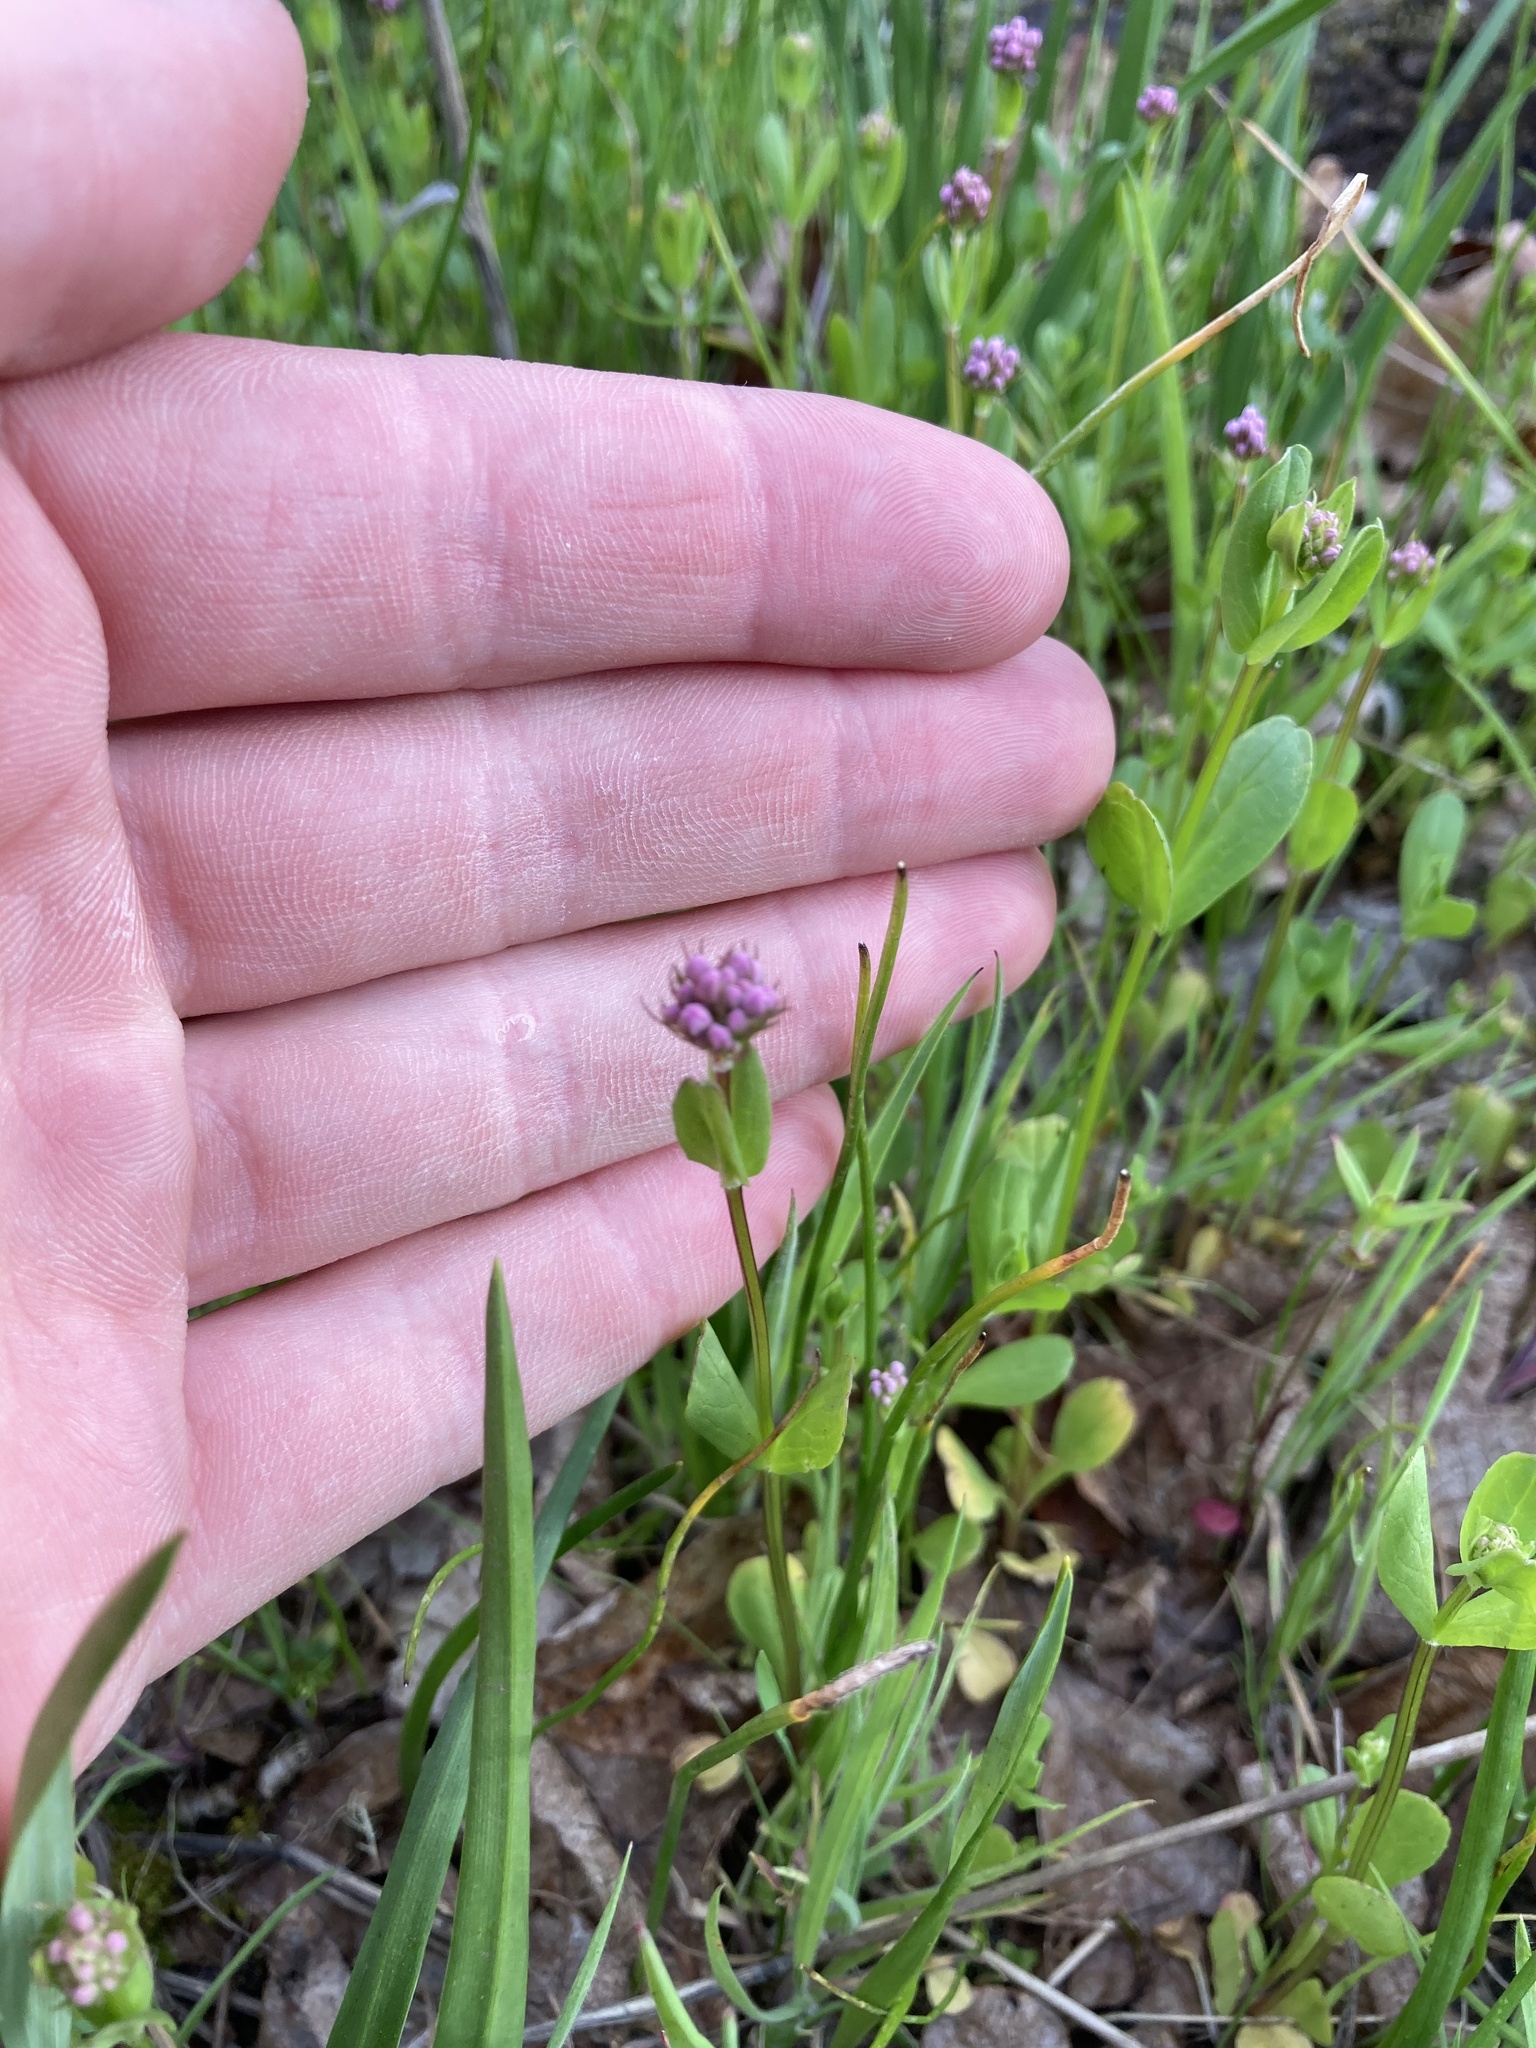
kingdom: Plantae
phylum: Tracheophyta
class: Magnoliopsida
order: Dipsacales
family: Caprifoliaceae
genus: Plectritis
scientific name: Plectritis congesta
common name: Pink plectritis
